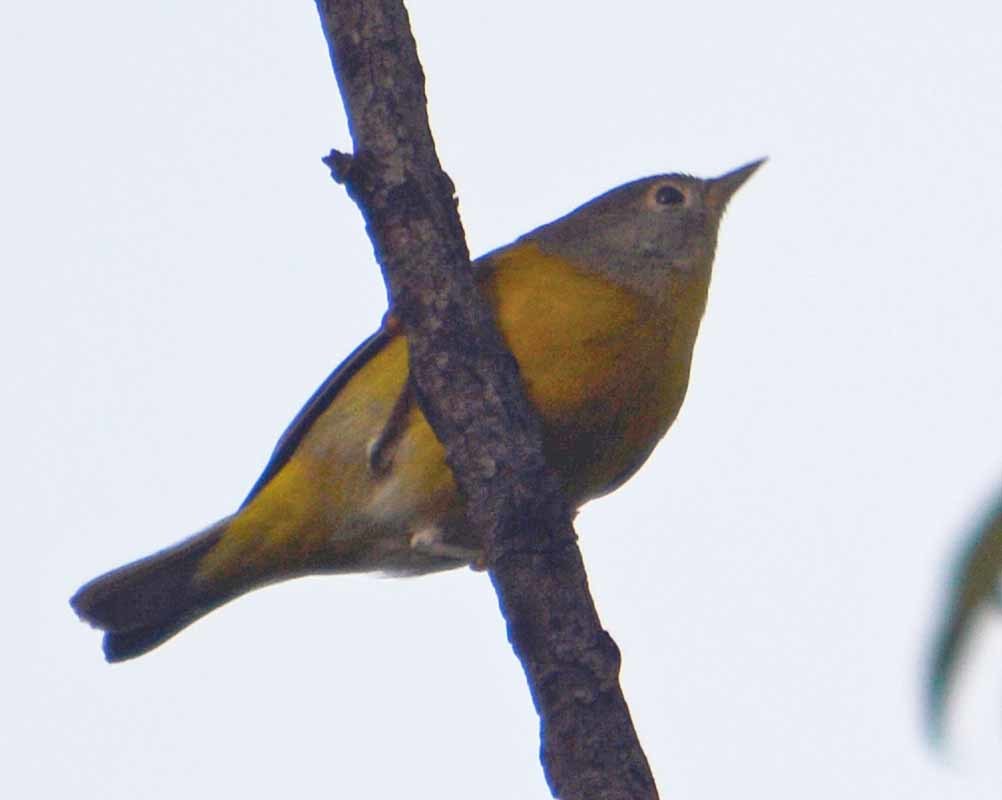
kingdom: Animalia
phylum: Chordata
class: Aves
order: Passeriformes
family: Parulidae
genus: Leiothlypis
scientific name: Leiothlypis ruficapilla
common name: Nashville warbler
